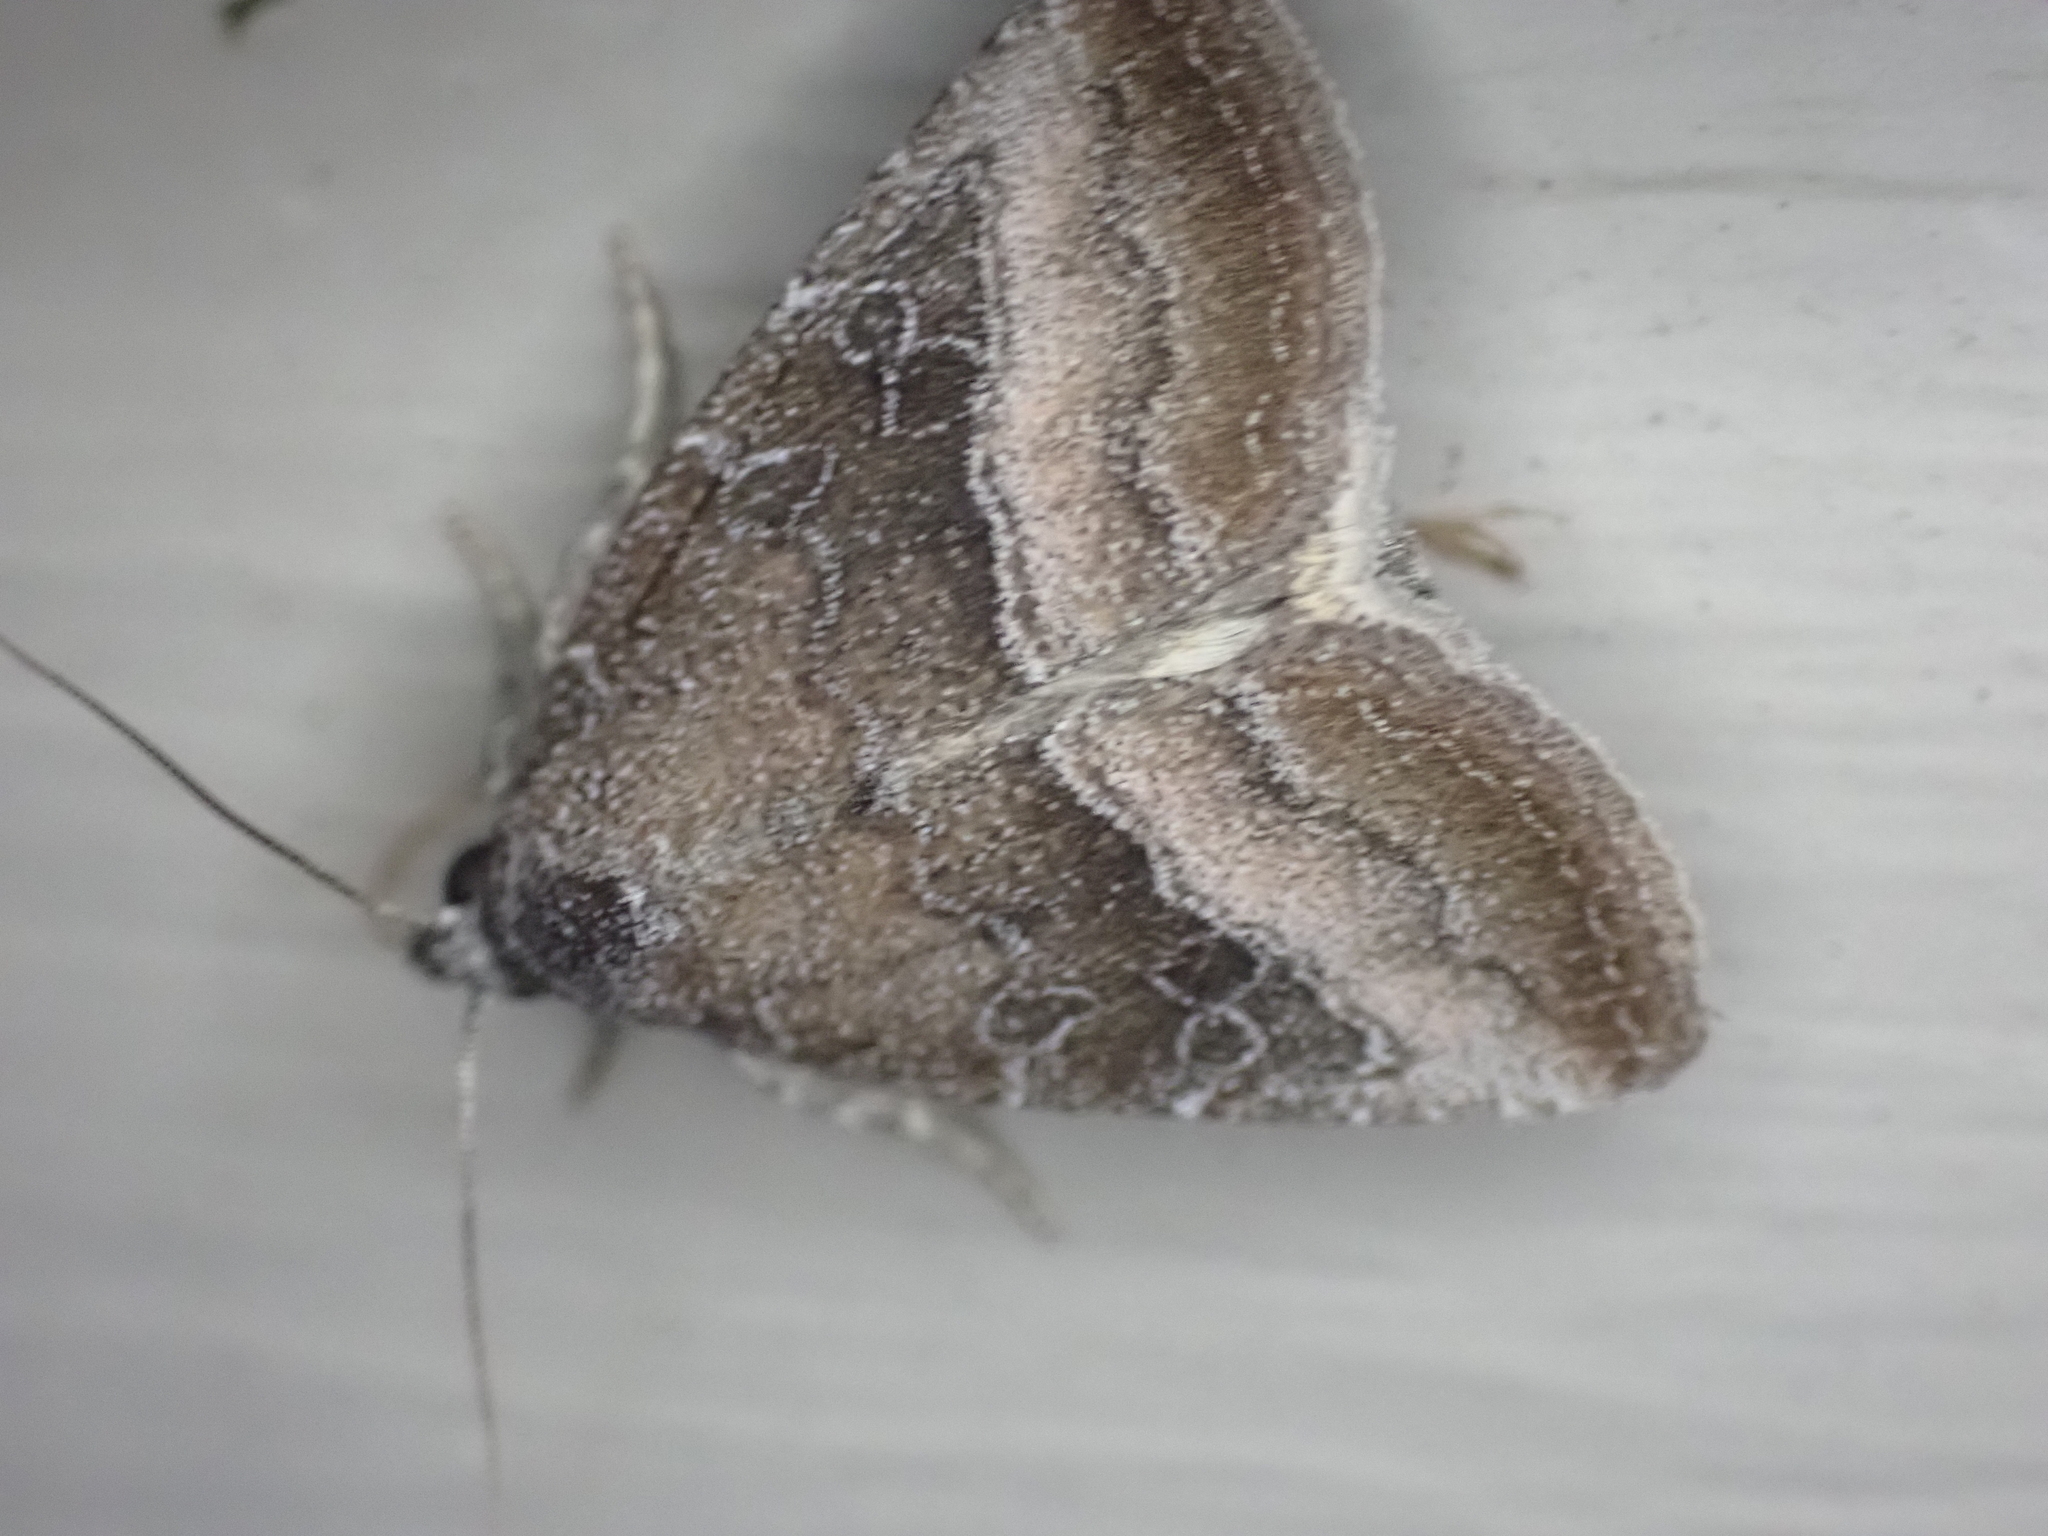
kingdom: Animalia
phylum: Arthropoda
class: Insecta
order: Lepidoptera
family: Noctuidae
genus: Ogdoconta
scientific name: Ogdoconta cinereola
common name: Common pinkband
